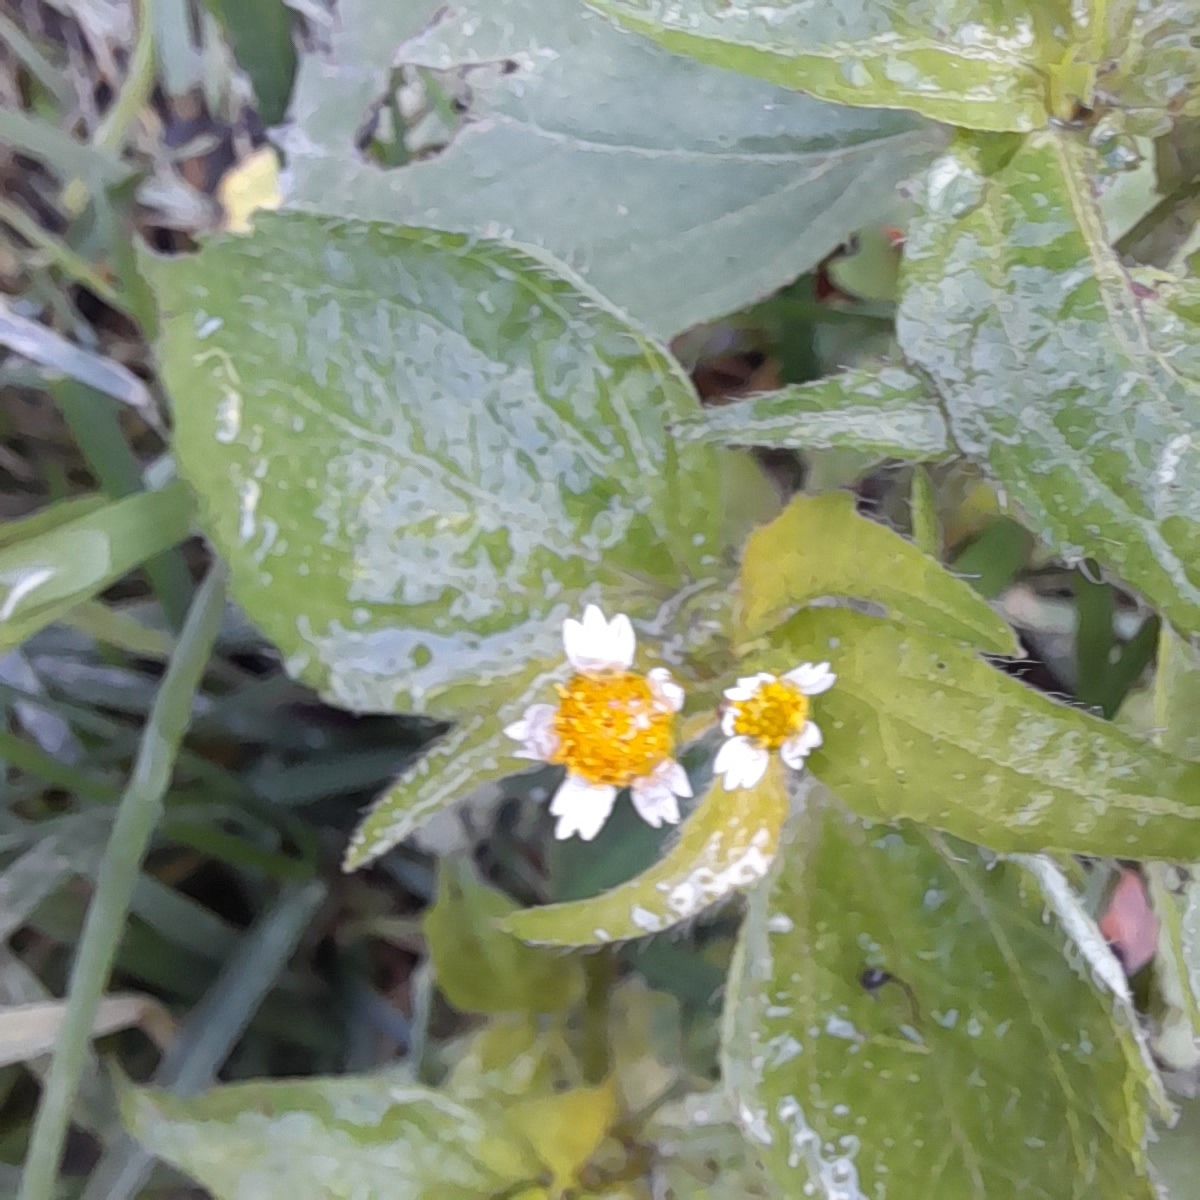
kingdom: Plantae
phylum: Tracheophyta
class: Magnoliopsida
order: Asterales
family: Asteraceae
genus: Galinsoga
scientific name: Galinsoga quadriradiata
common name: Shaggy soldier
